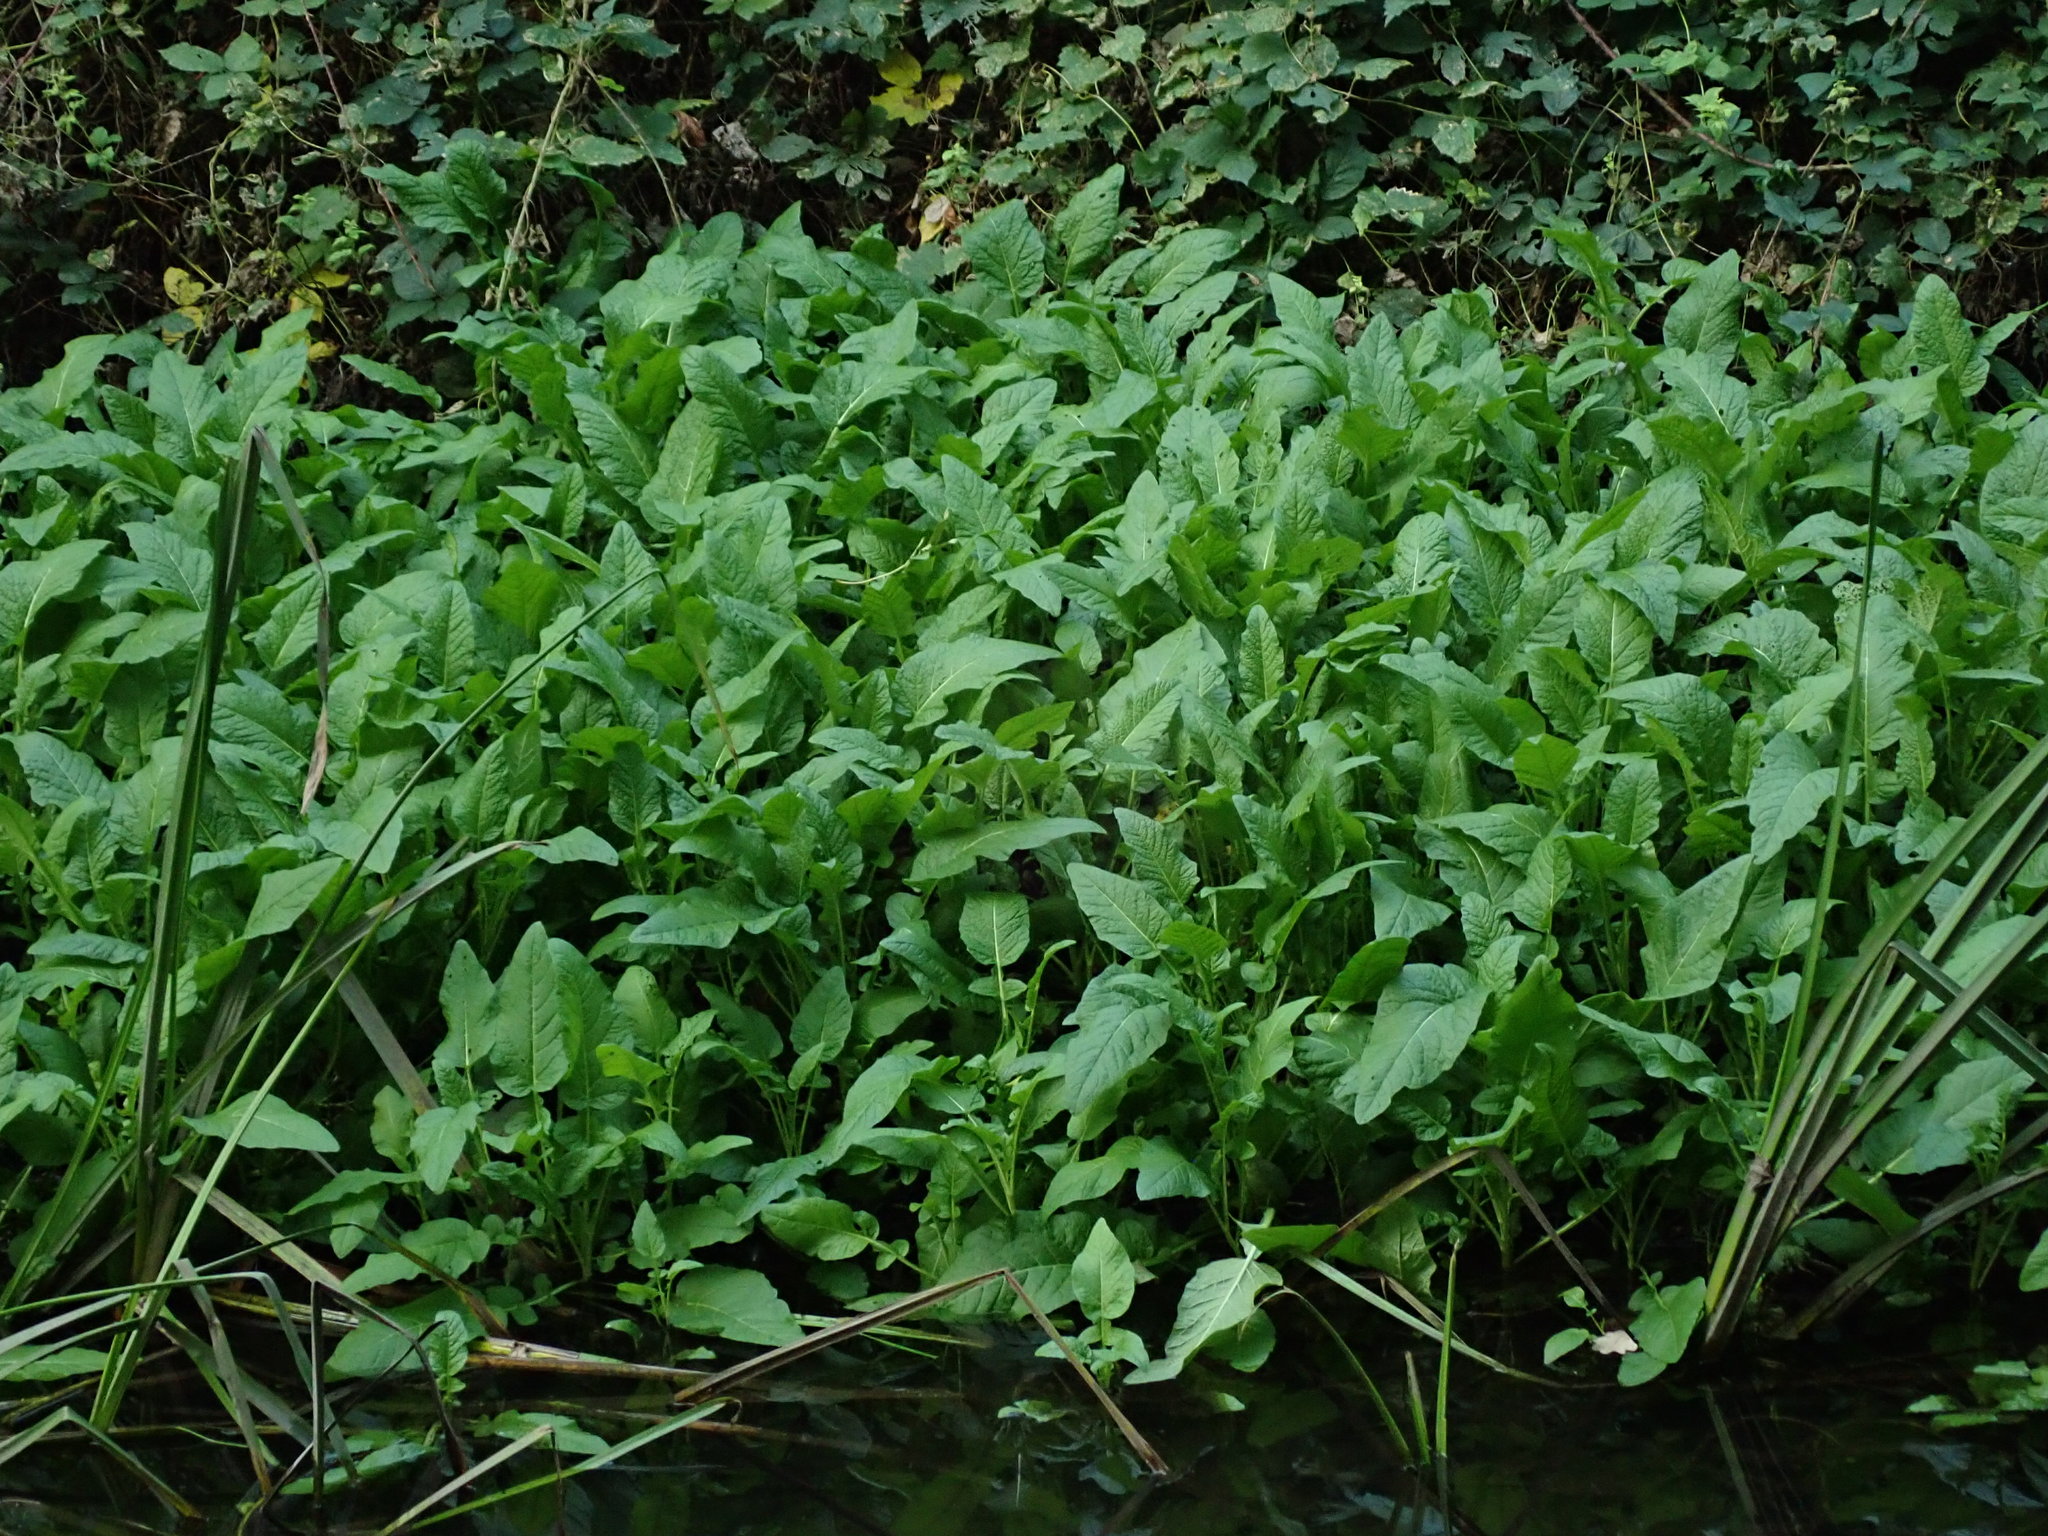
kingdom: Plantae
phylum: Tracheophyta
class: Magnoliopsida
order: Brassicales
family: Brassicaceae
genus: Rorippa
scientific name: Rorippa amphibia
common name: Great yellow-cress
